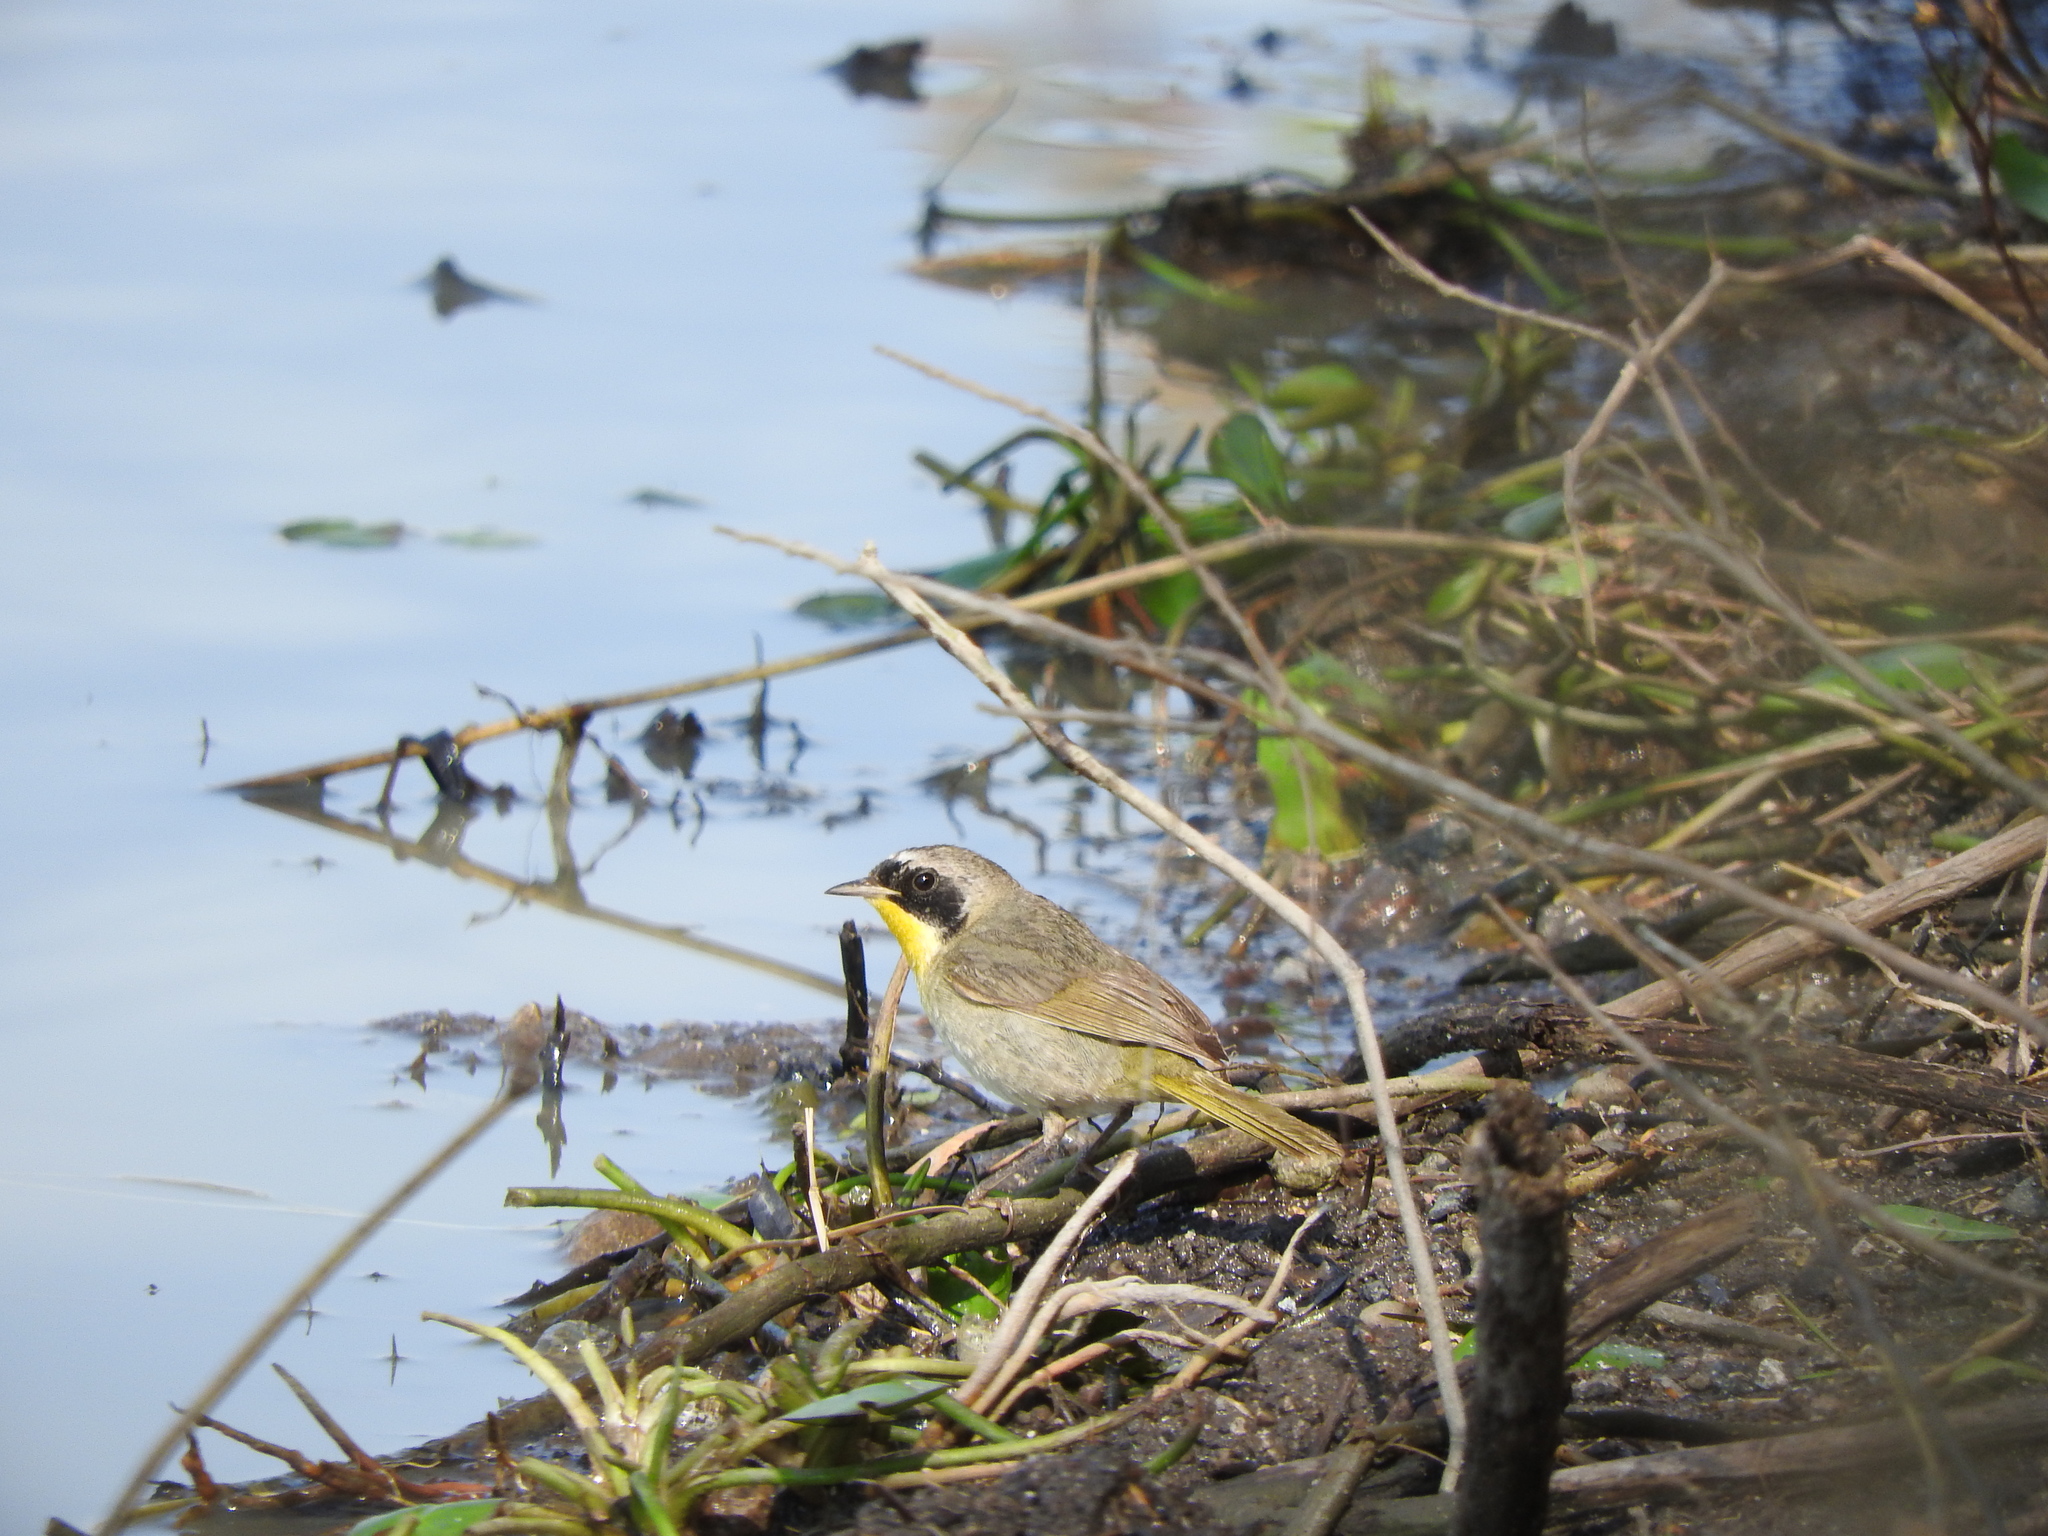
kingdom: Animalia
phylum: Chordata
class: Aves
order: Passeriformes
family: Parulidae
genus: Geothlypis
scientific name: Geothlypis trichas
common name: Common yellowthroat
